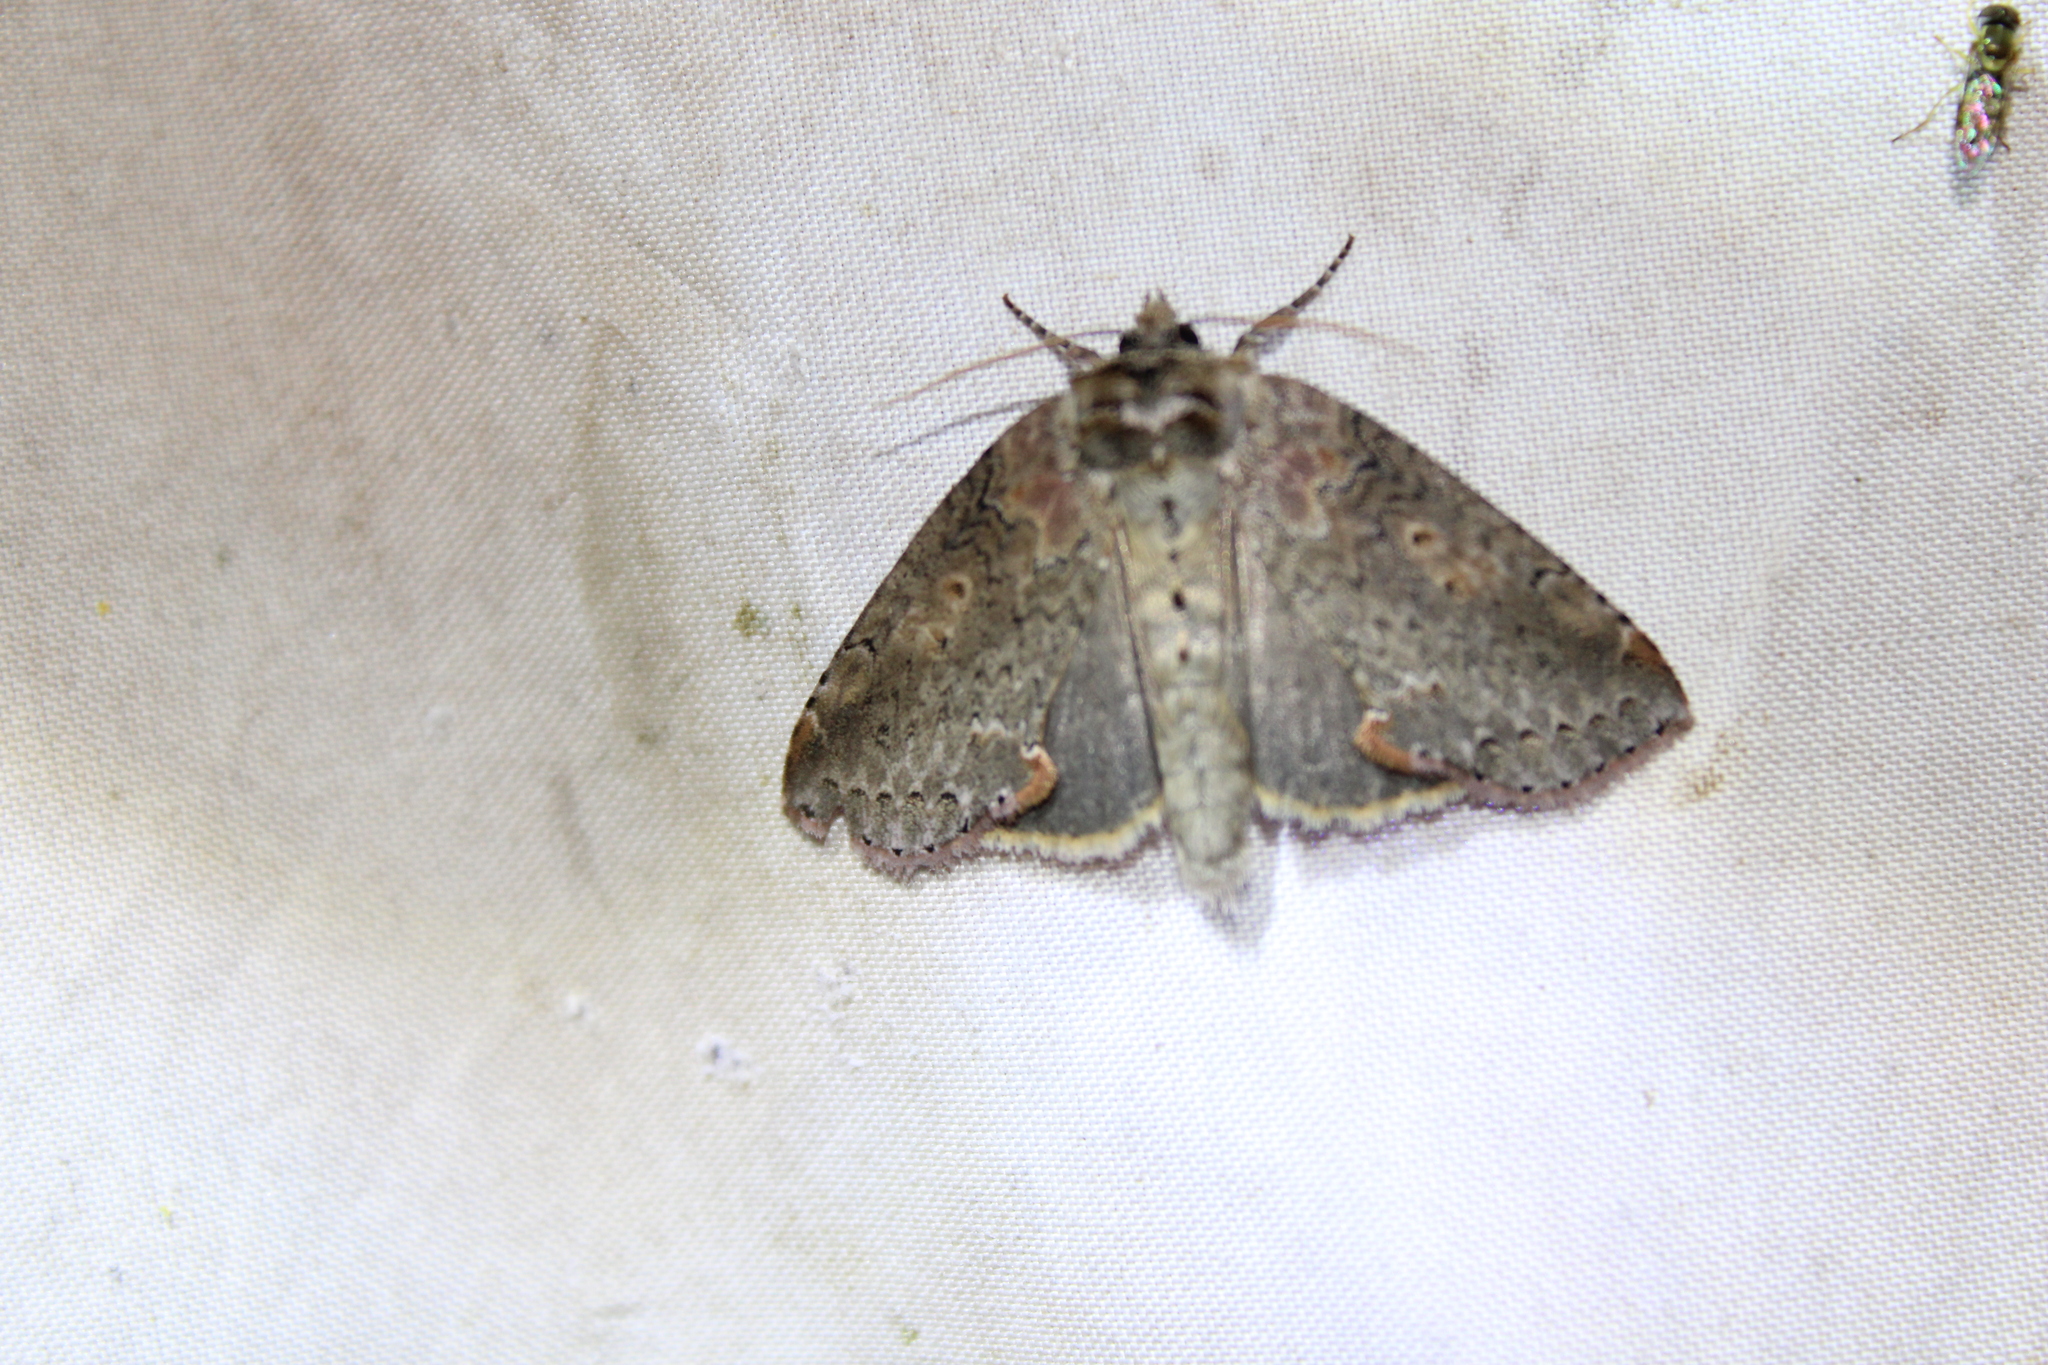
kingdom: Animalia
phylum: Arthropoda
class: Insecta
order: Lepidoptera
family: Drepanidae
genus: Pseudothyatira
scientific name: Pseudothyatira cymatophoroides
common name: Tufted thyatirid moth
